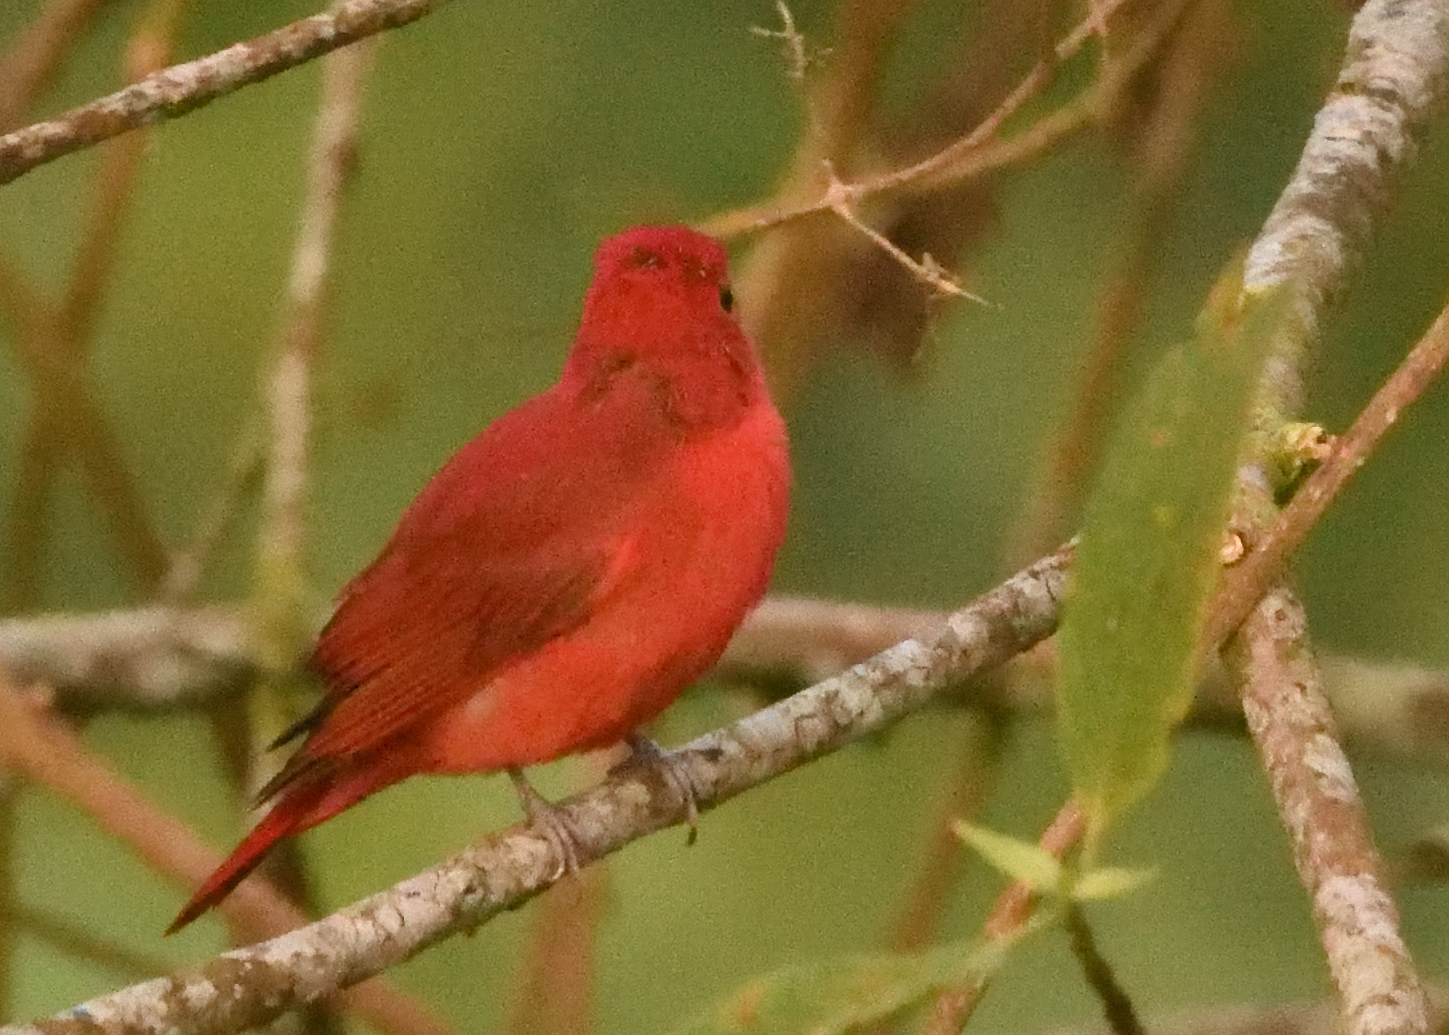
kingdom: Animalia
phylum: Chordata
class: Aves
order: Passeriformes
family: Cardinalidae
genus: Piranga
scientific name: Piranga rubra
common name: Summer tanager
